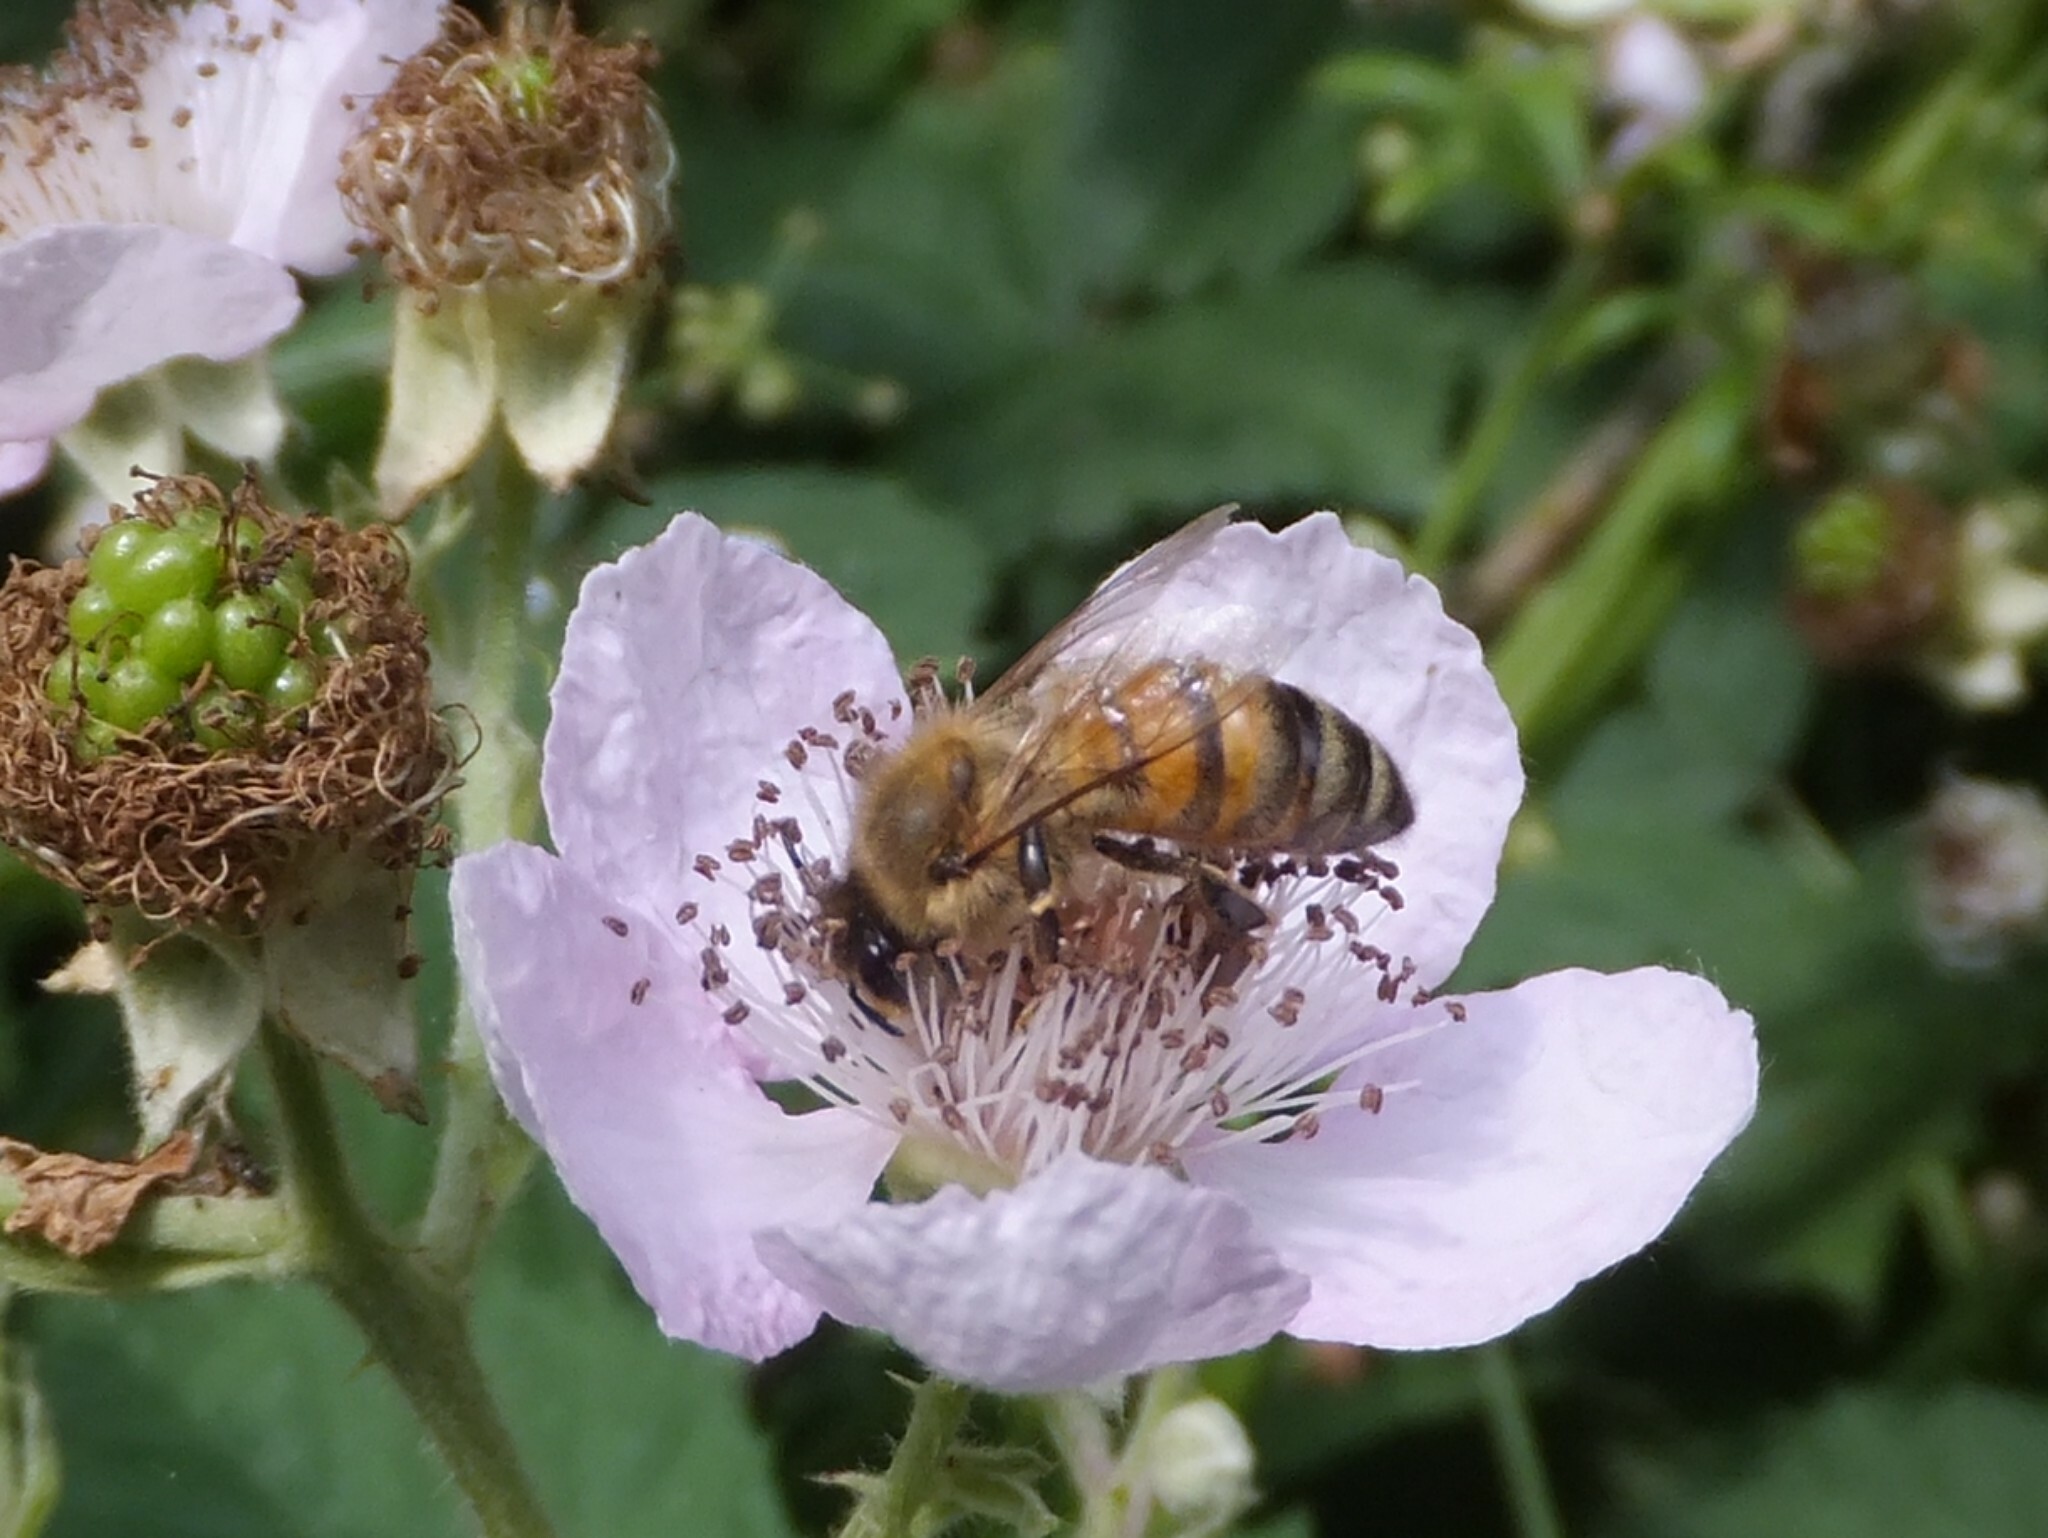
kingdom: Animalia
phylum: Arthropoda
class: Insecta
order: Hymenoptera
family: Apidae
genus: Apis
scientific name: Apis mellifera
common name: Honey bee
